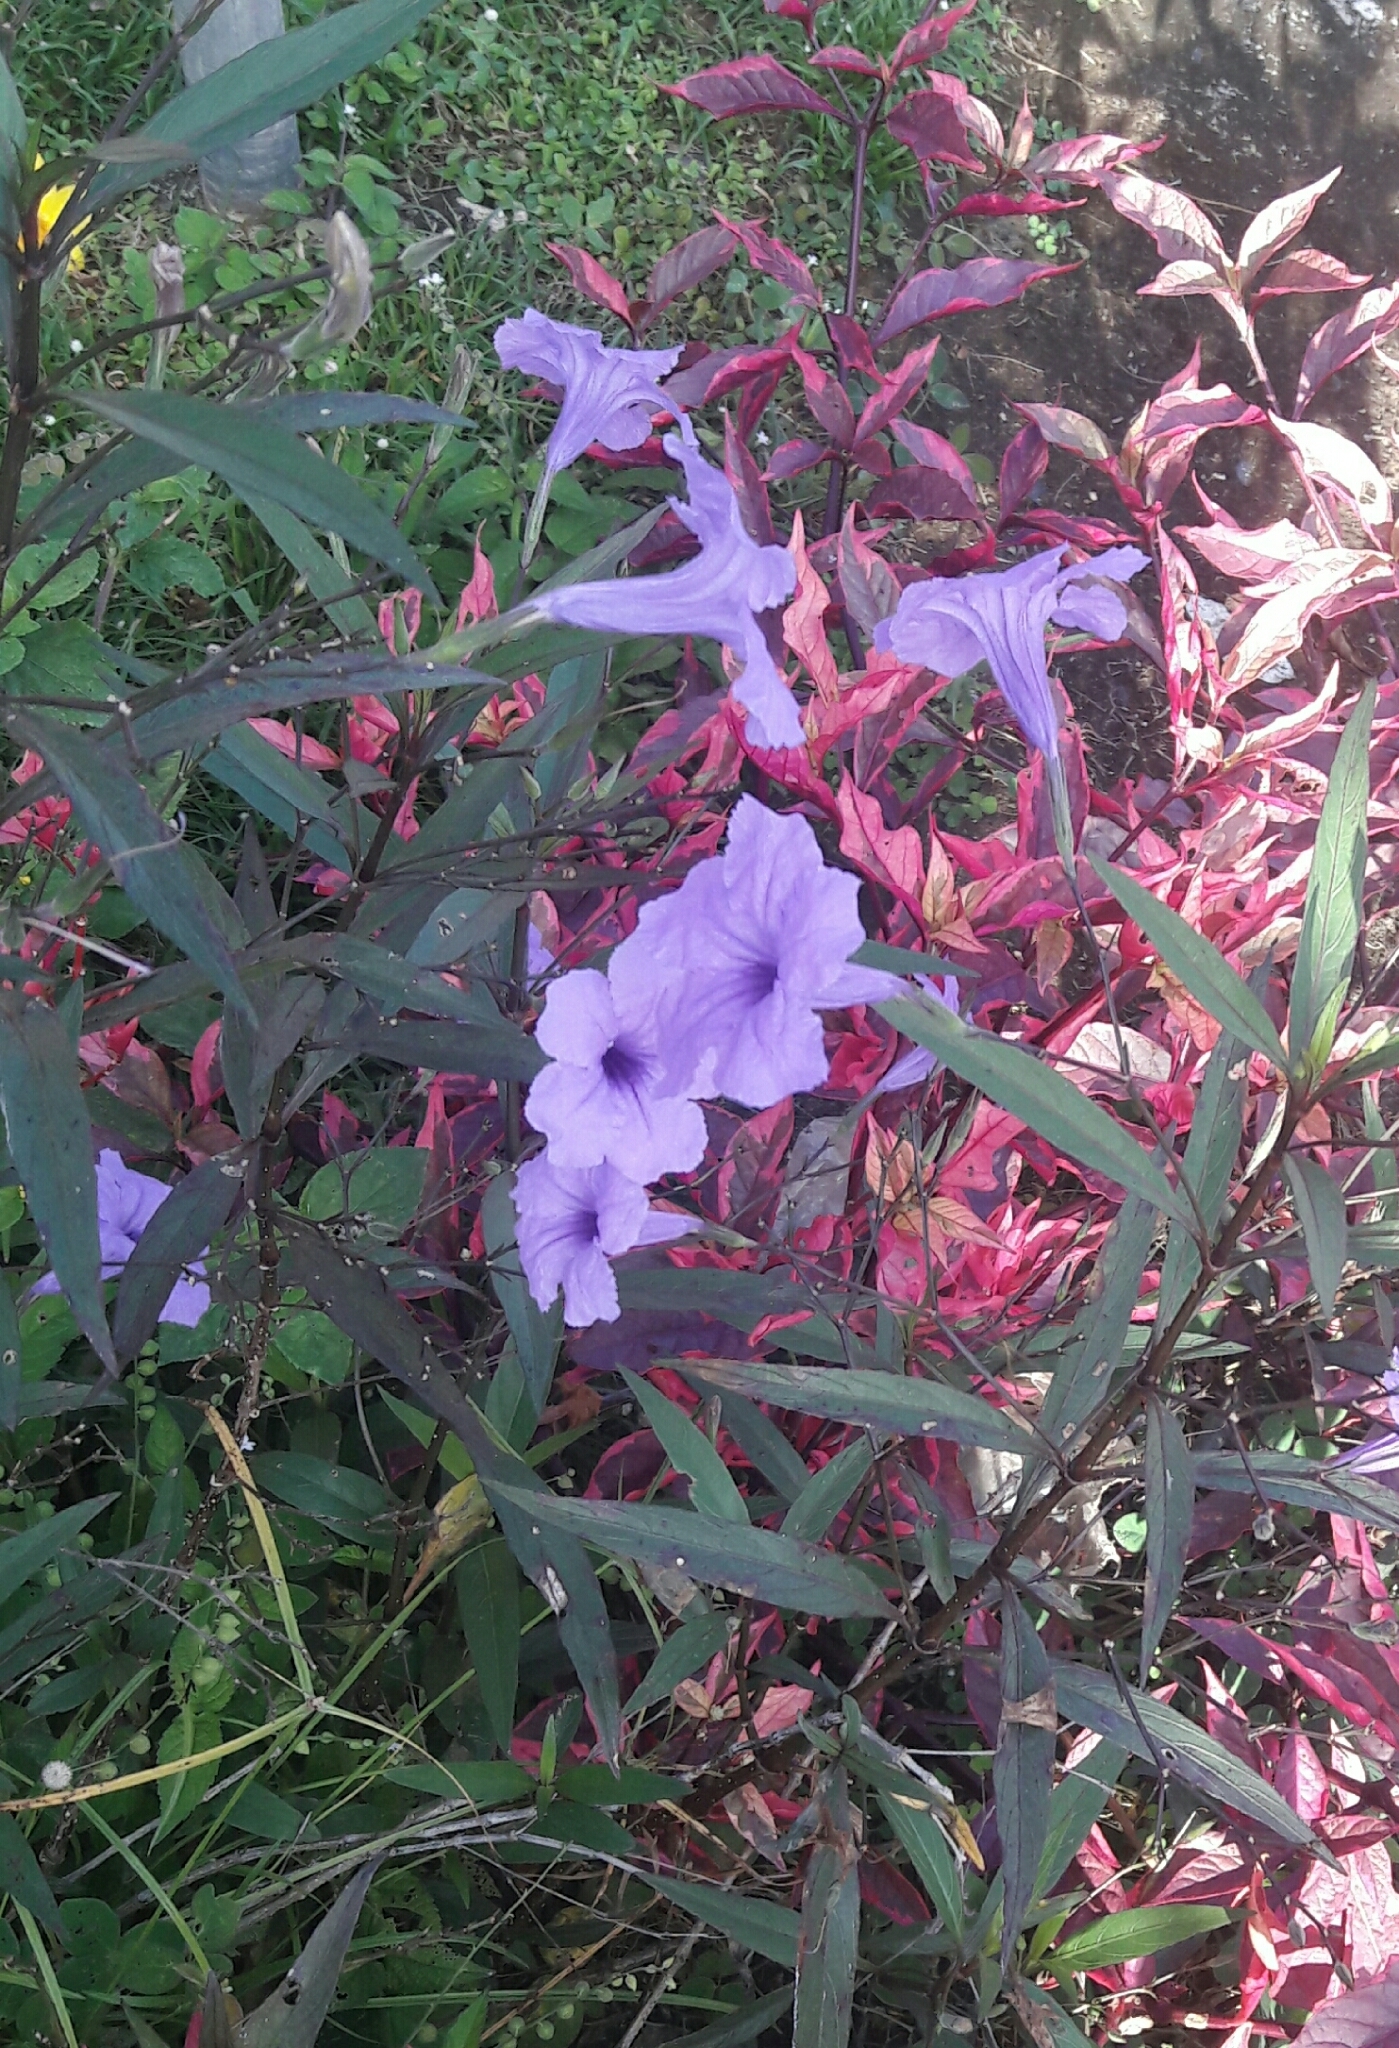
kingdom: Plantae
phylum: Tracheophyta
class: Magnoliopsida
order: Lamiales
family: Acanthaceae
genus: Ruellia
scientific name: Ruellia simplex
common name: Softseed wild petunia
